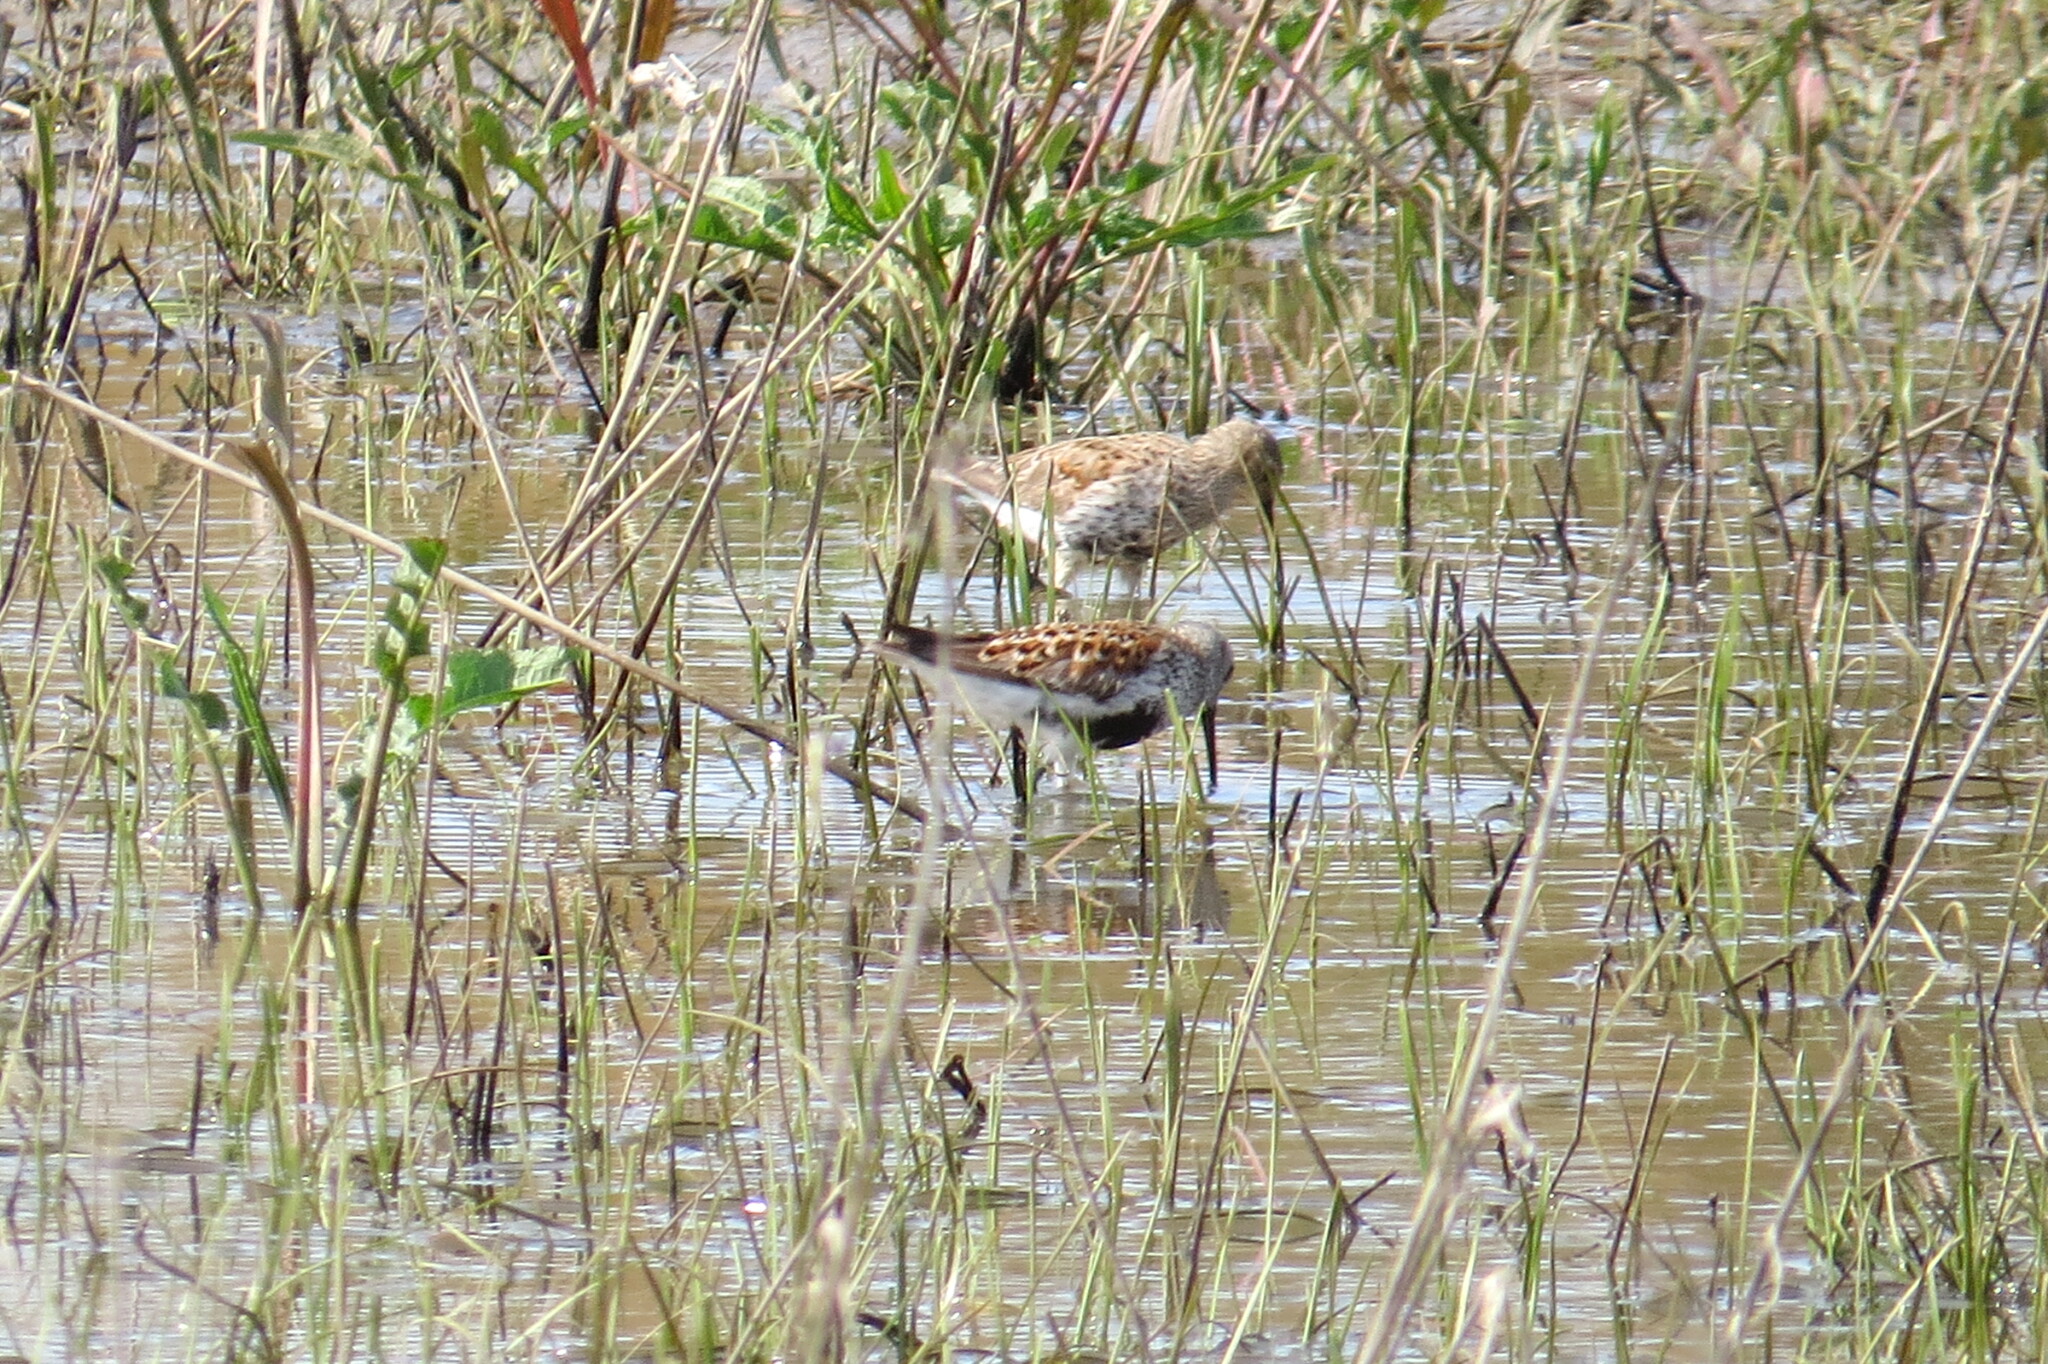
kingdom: Animalia
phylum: Chordata
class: Aves
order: Charadriiformes
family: Scolopacidae
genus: Calidris
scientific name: Calidris alpina
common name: Dunlin
